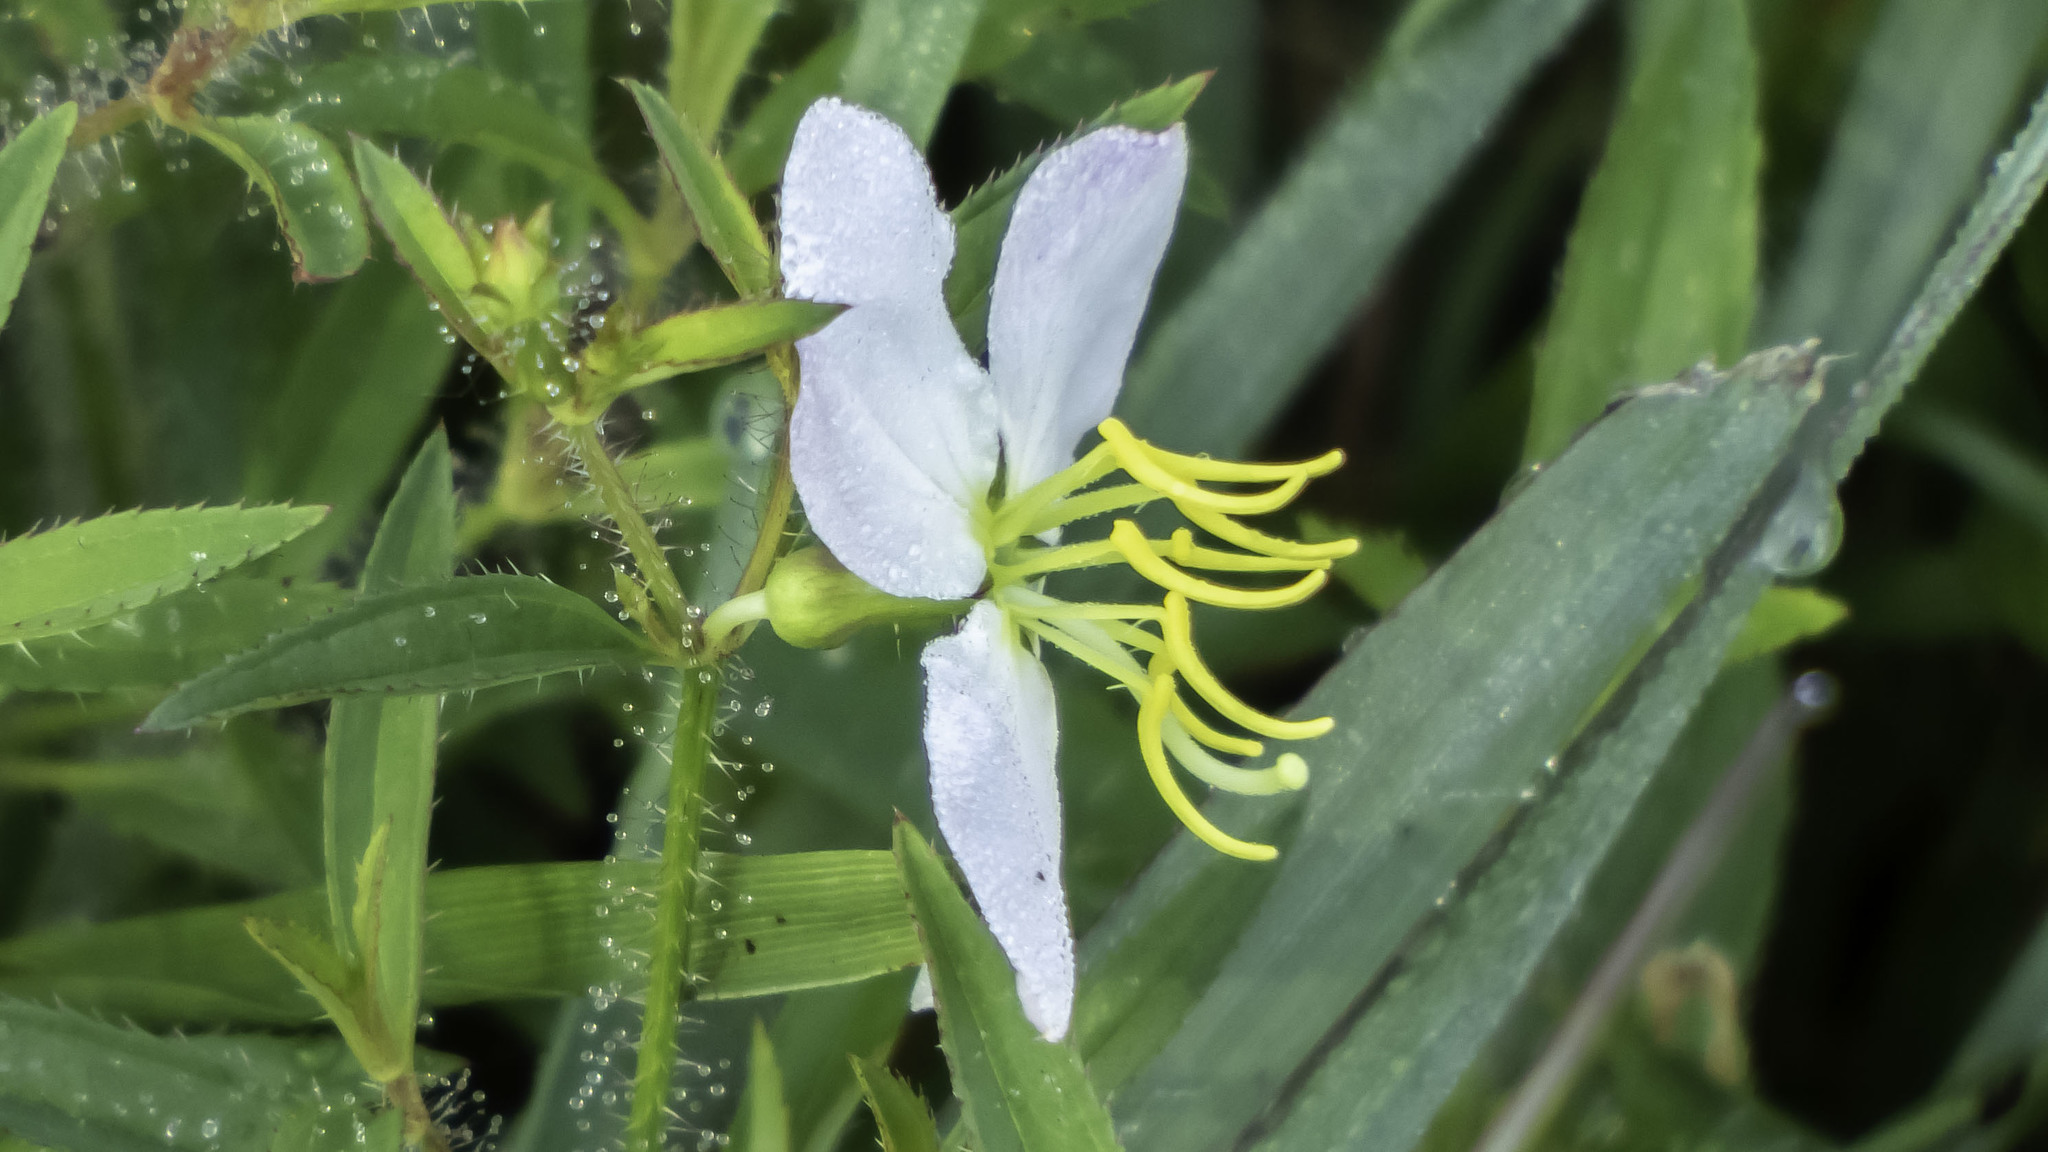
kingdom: Plantae
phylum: Tracheophyta
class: Magnoliopsida
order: Myrtales
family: Melastomataceae
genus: Rhexia
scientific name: Rhexia mariana
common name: Dull meadow-pitcher
